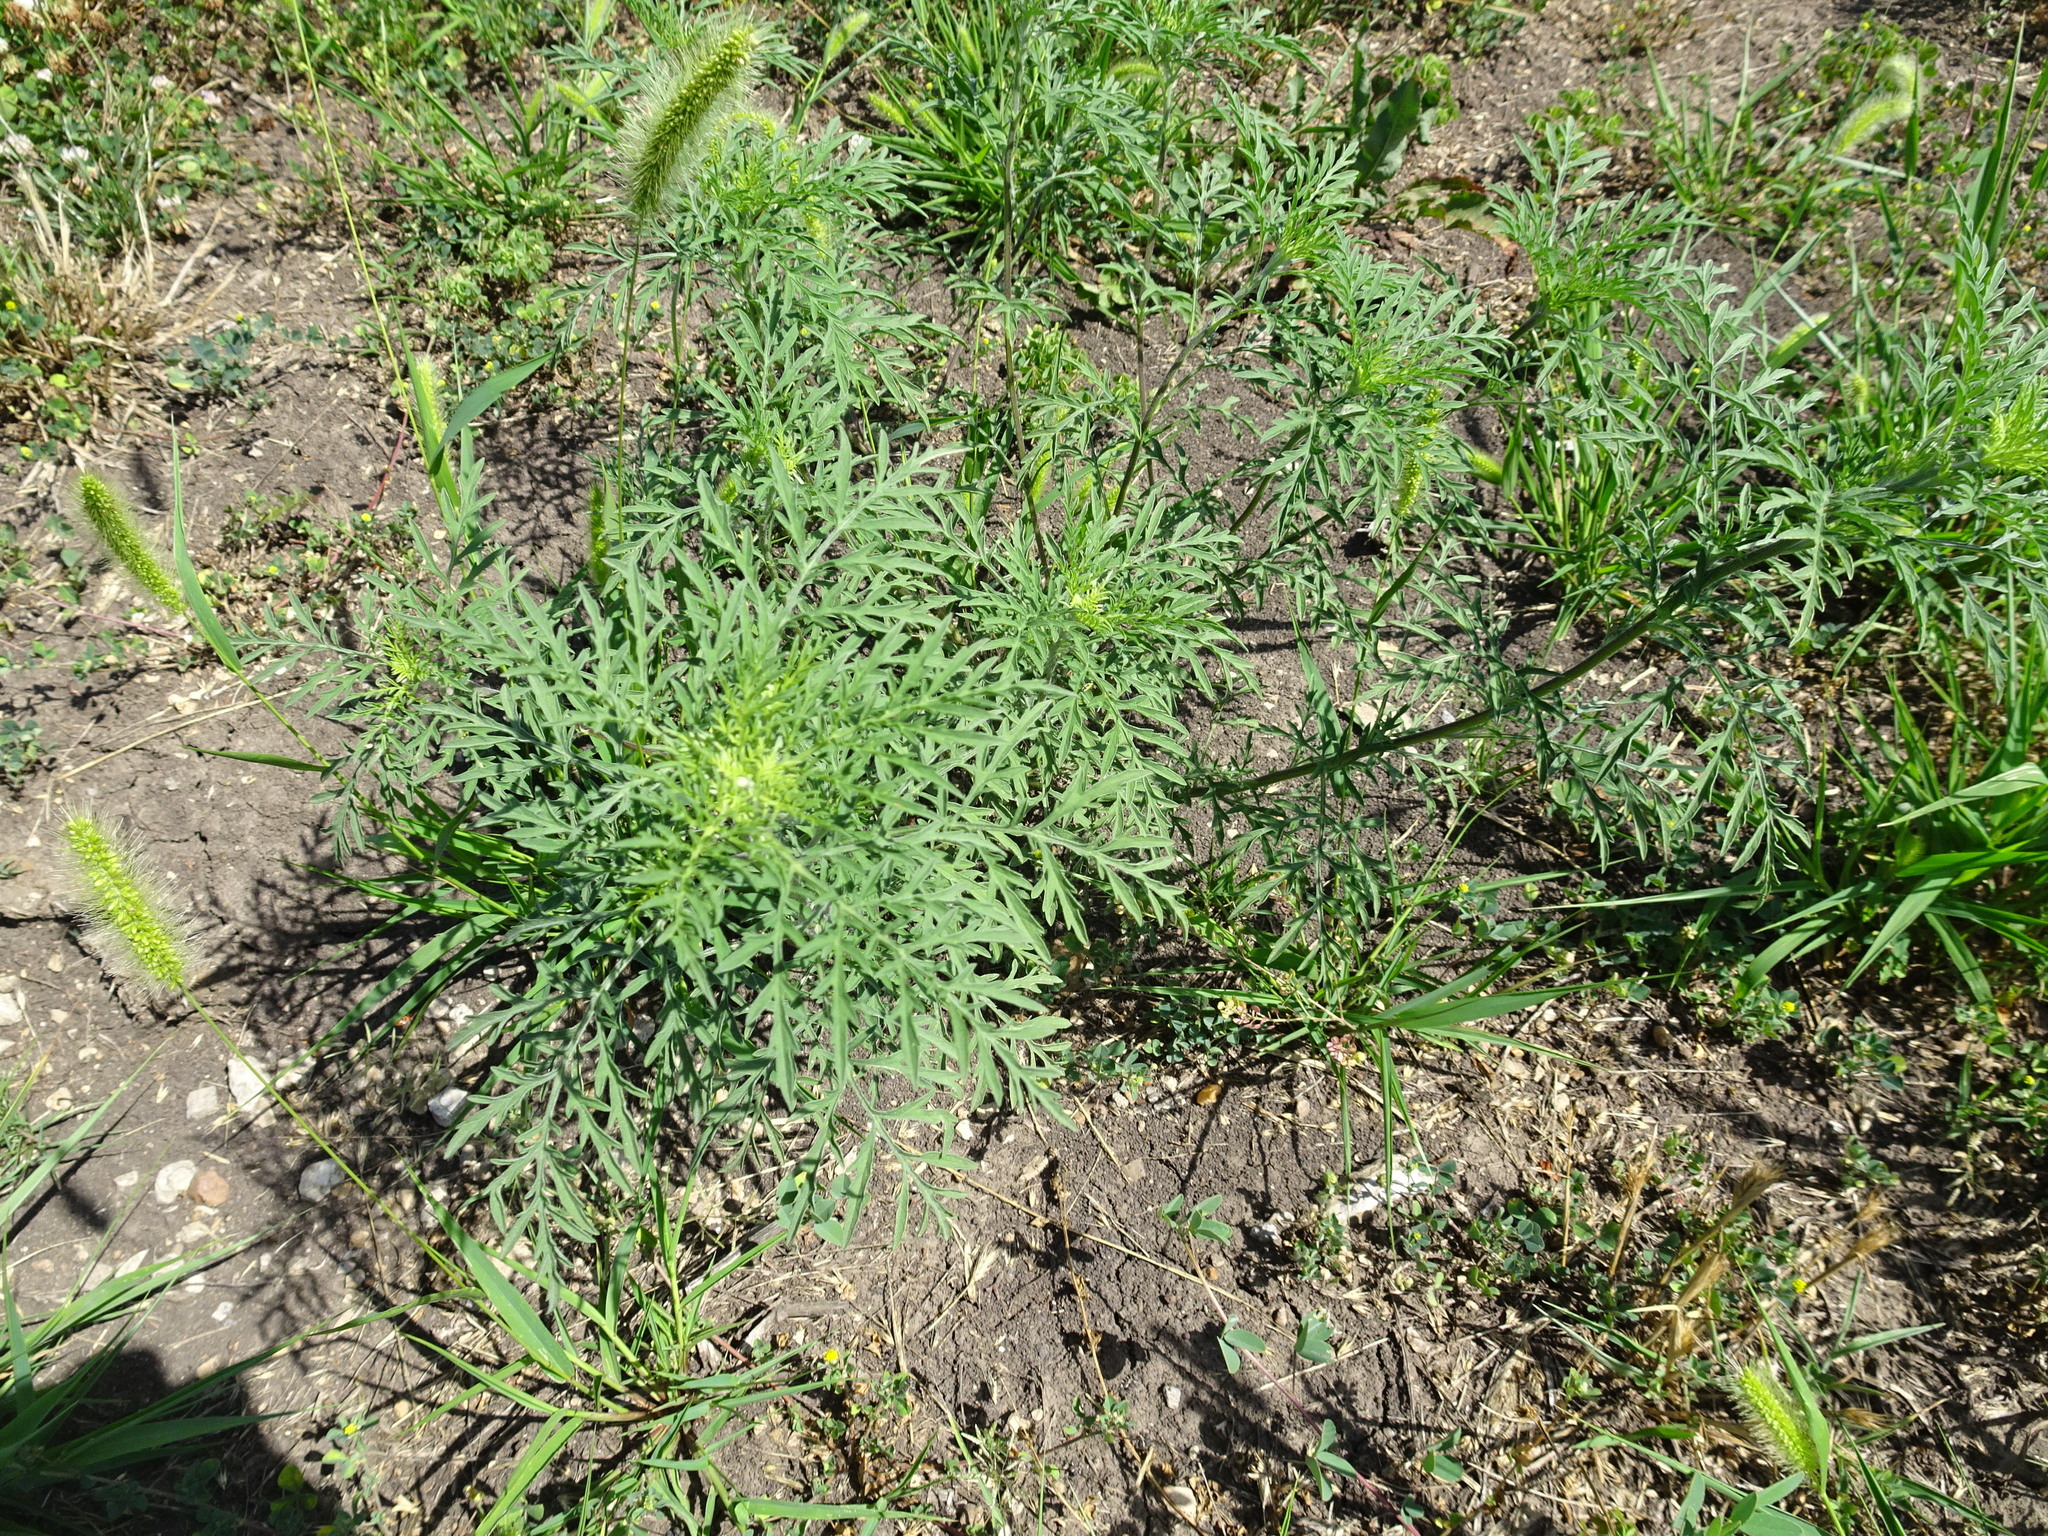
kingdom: Plantae
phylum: Tracheophyta
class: Magnoliopsida
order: Asterales
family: Asteraceae
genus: Ambrosia
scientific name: Ambrosia artemisiifolia
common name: Annual ragweed
